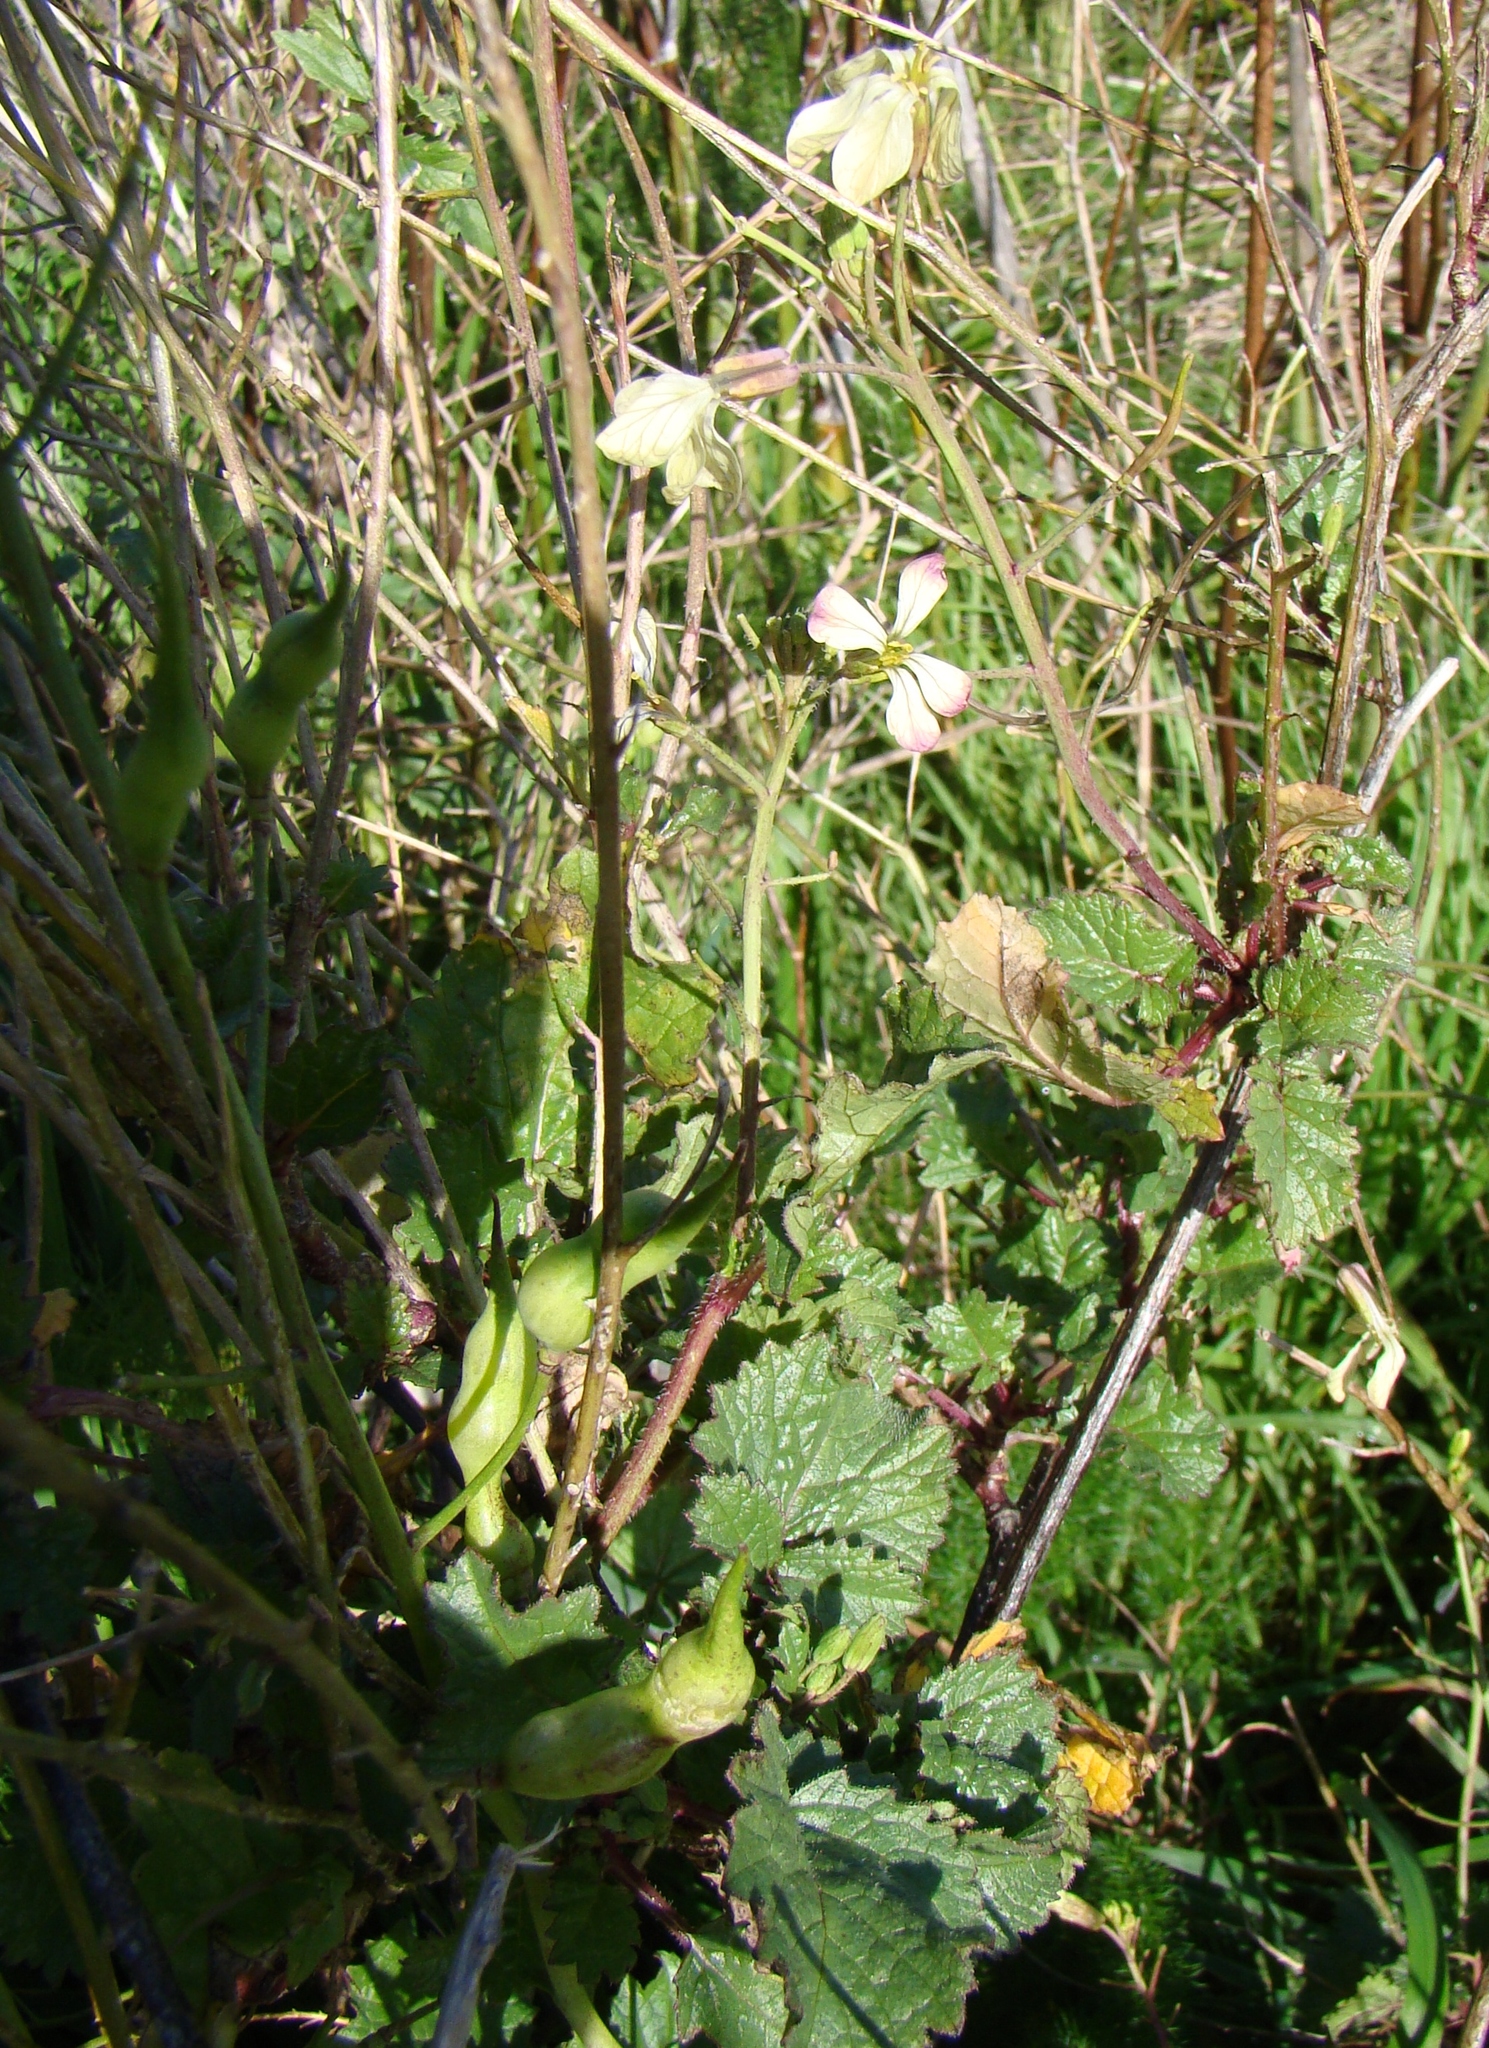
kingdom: Plantae
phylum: Tracheophyta
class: Magnoliopsida
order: Brassicales
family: Brassicaceae
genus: Raphanus
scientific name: Raphanus raphanistrum
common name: Wild radish
